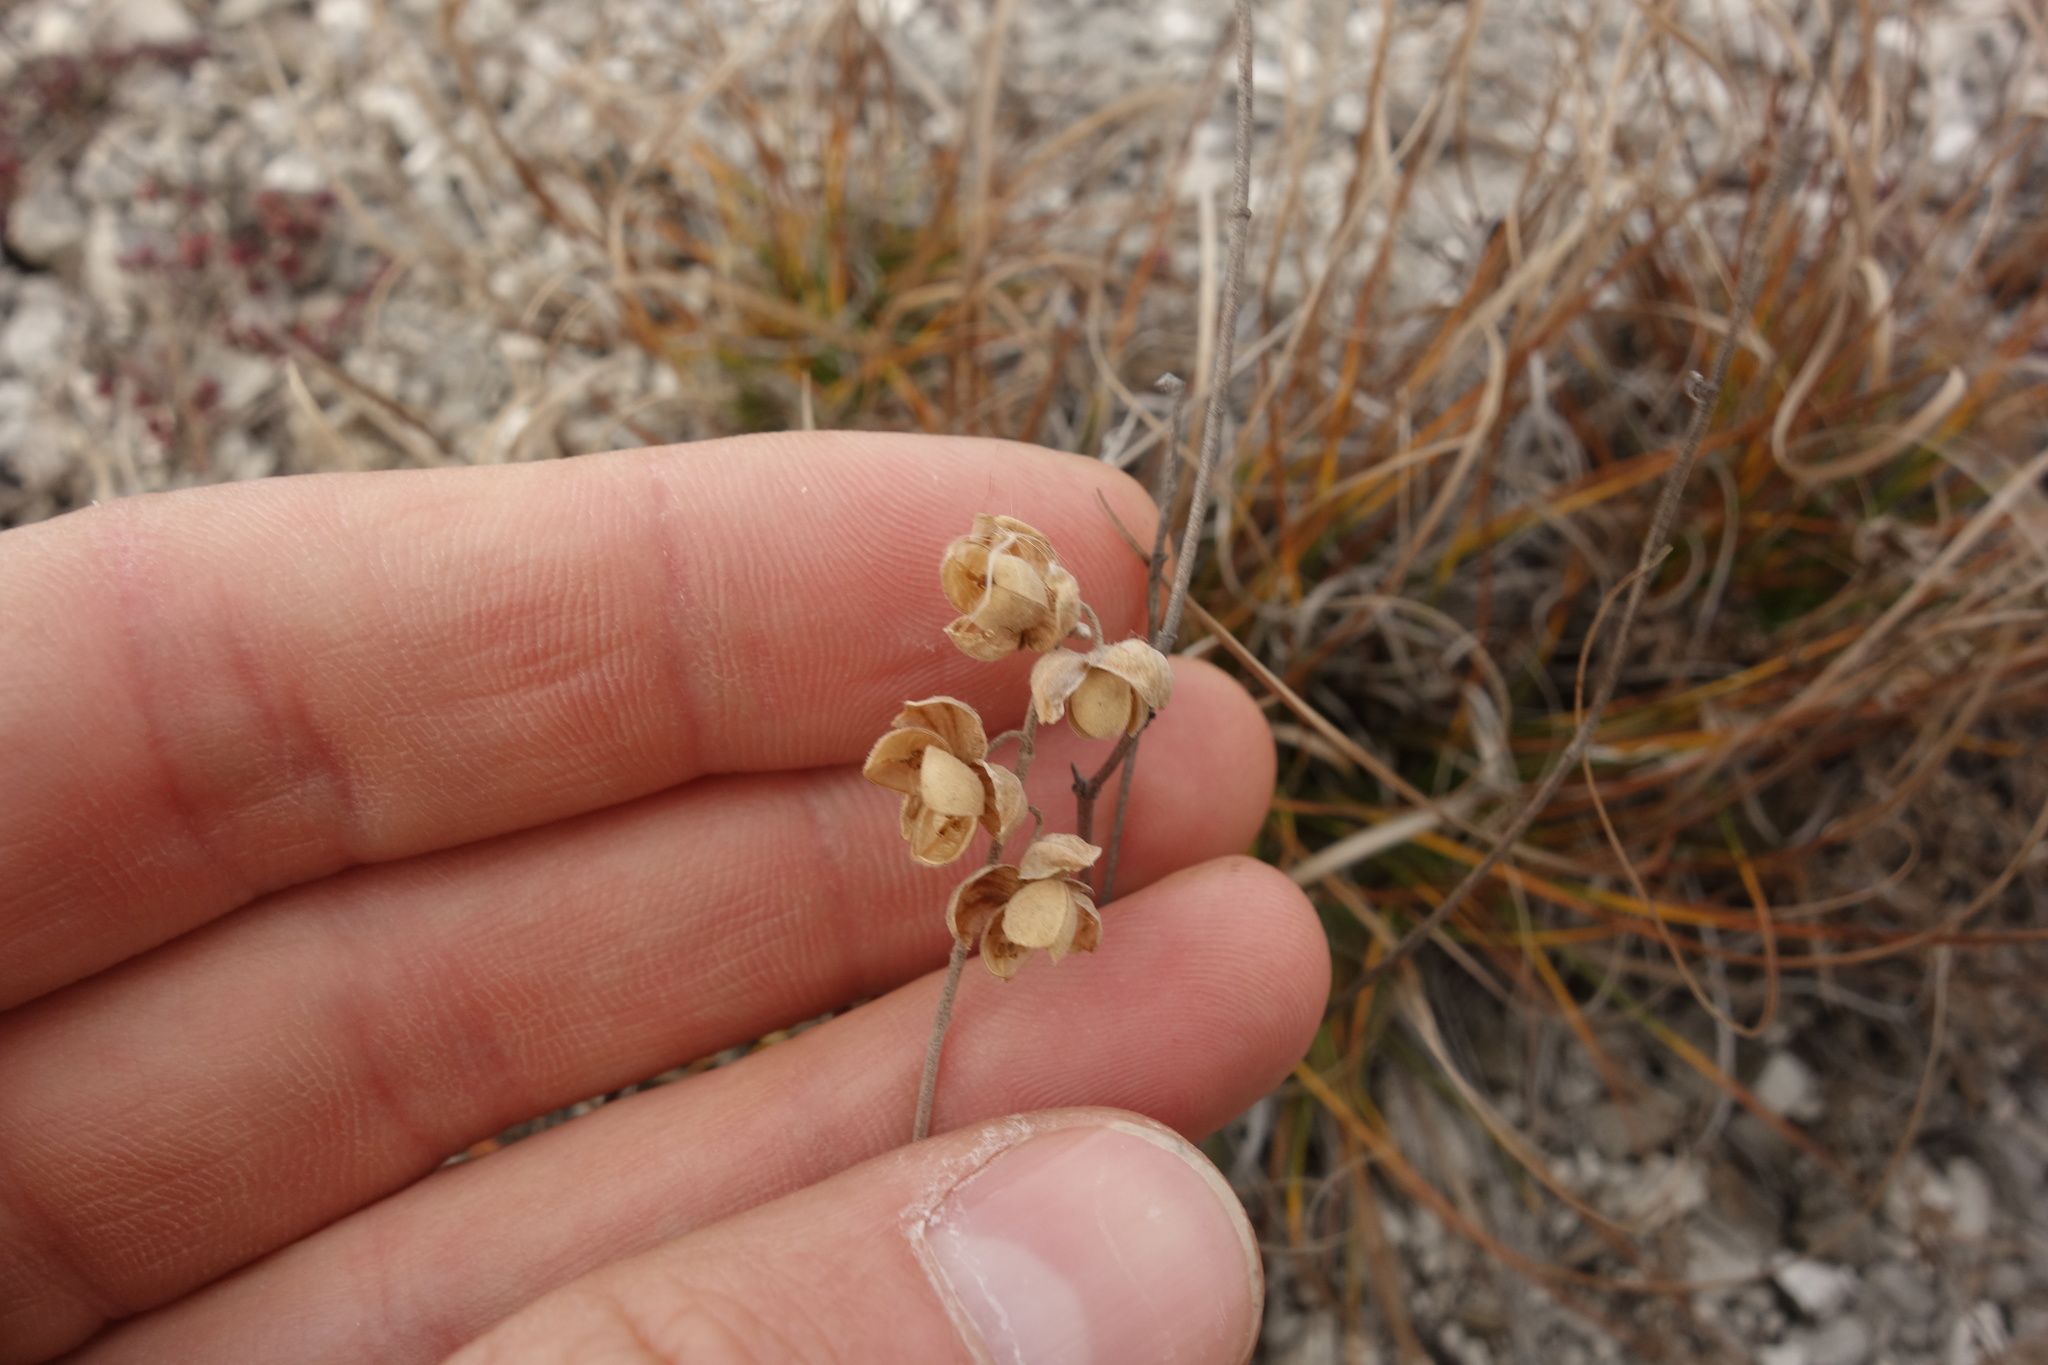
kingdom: Plantae
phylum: Tracheophyta
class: Magnoliopsida
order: Malvales
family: Cistaceae
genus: Helianthemum
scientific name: Helianthemum nummularium
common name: Common rock-rose
